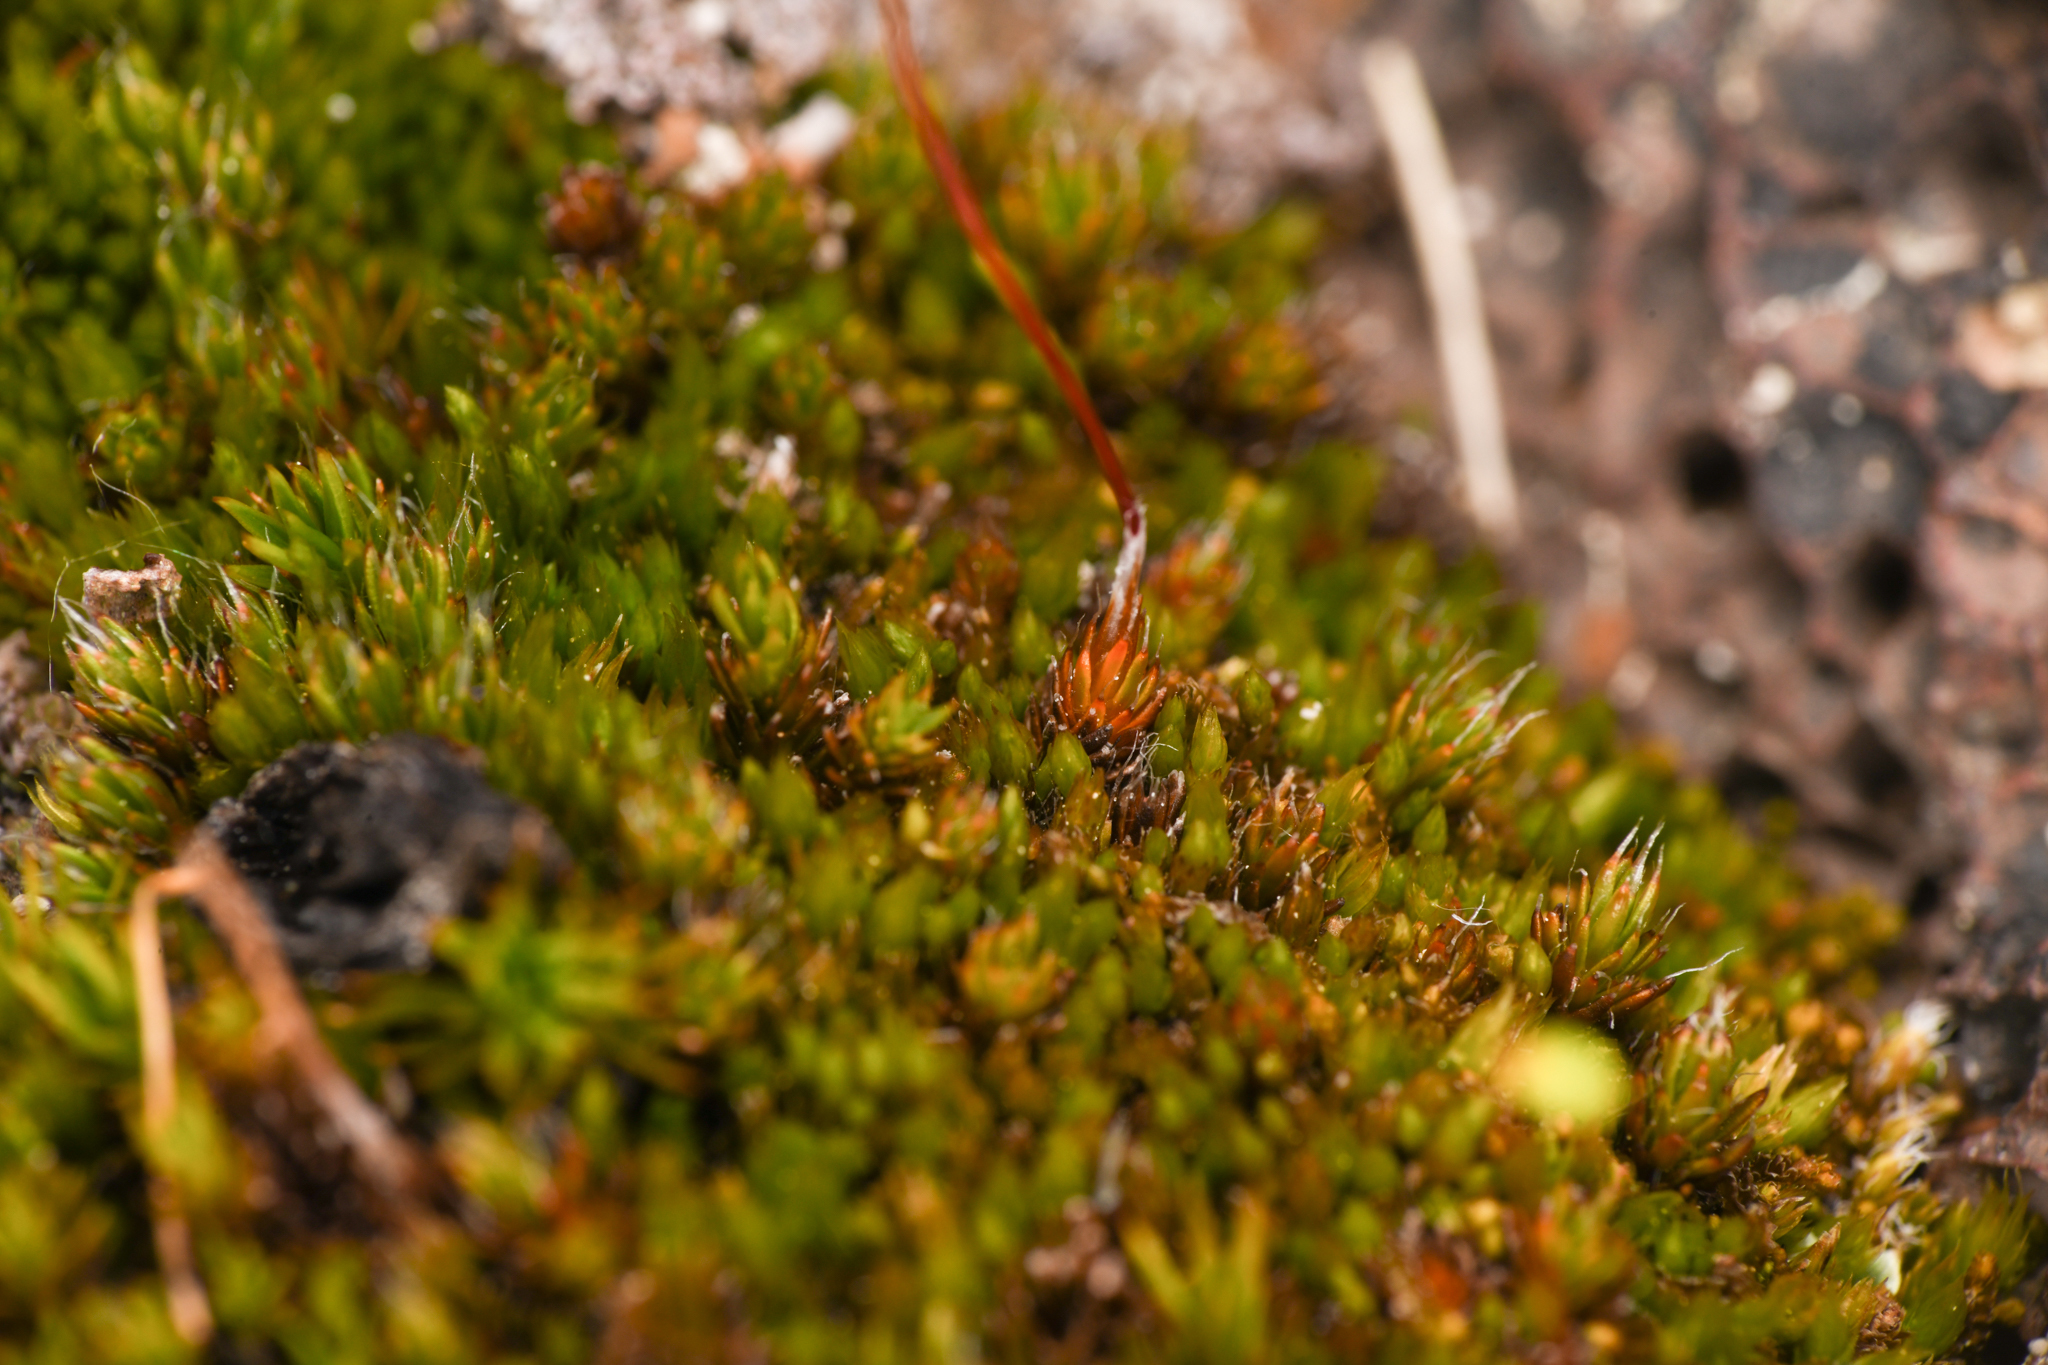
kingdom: Plantae
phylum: Bryophyta
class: Polytrichopsida
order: Polytrichales
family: Polytrichaceae
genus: Polytrichum
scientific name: Polytrichum piliferum
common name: Bristly haircap
